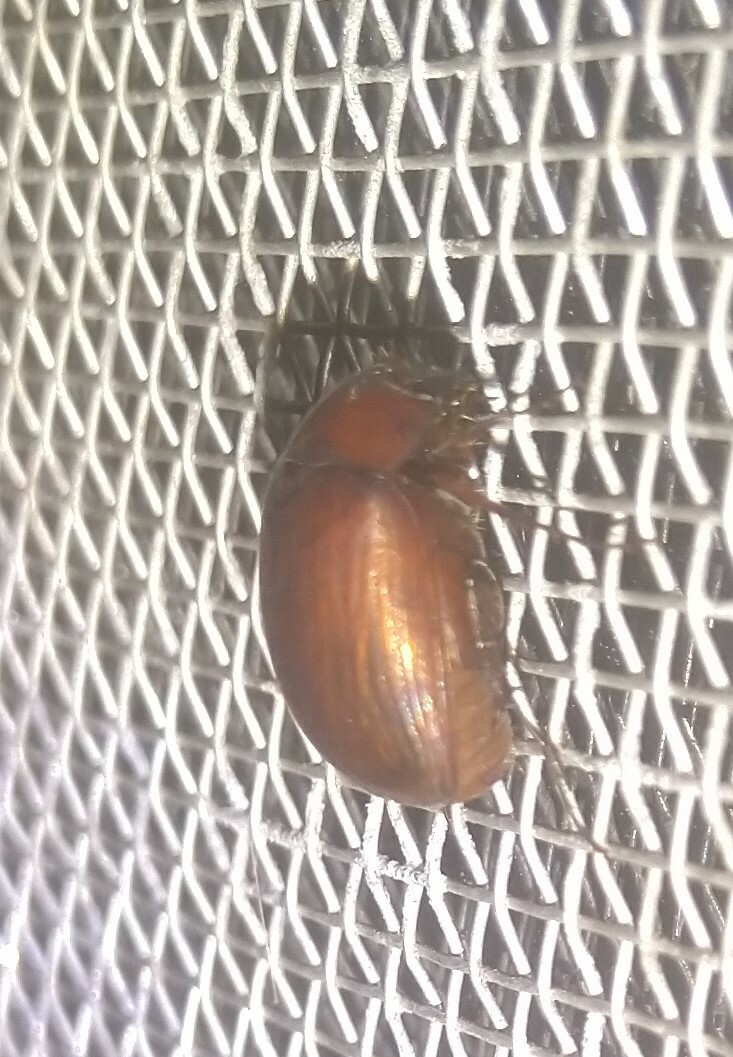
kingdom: Animalia
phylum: Arthropoda
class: Insecta
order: Coleoptera
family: Scarabaeidae
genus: Maladera
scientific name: Maladera formosae
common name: Asiatic garden beetle
